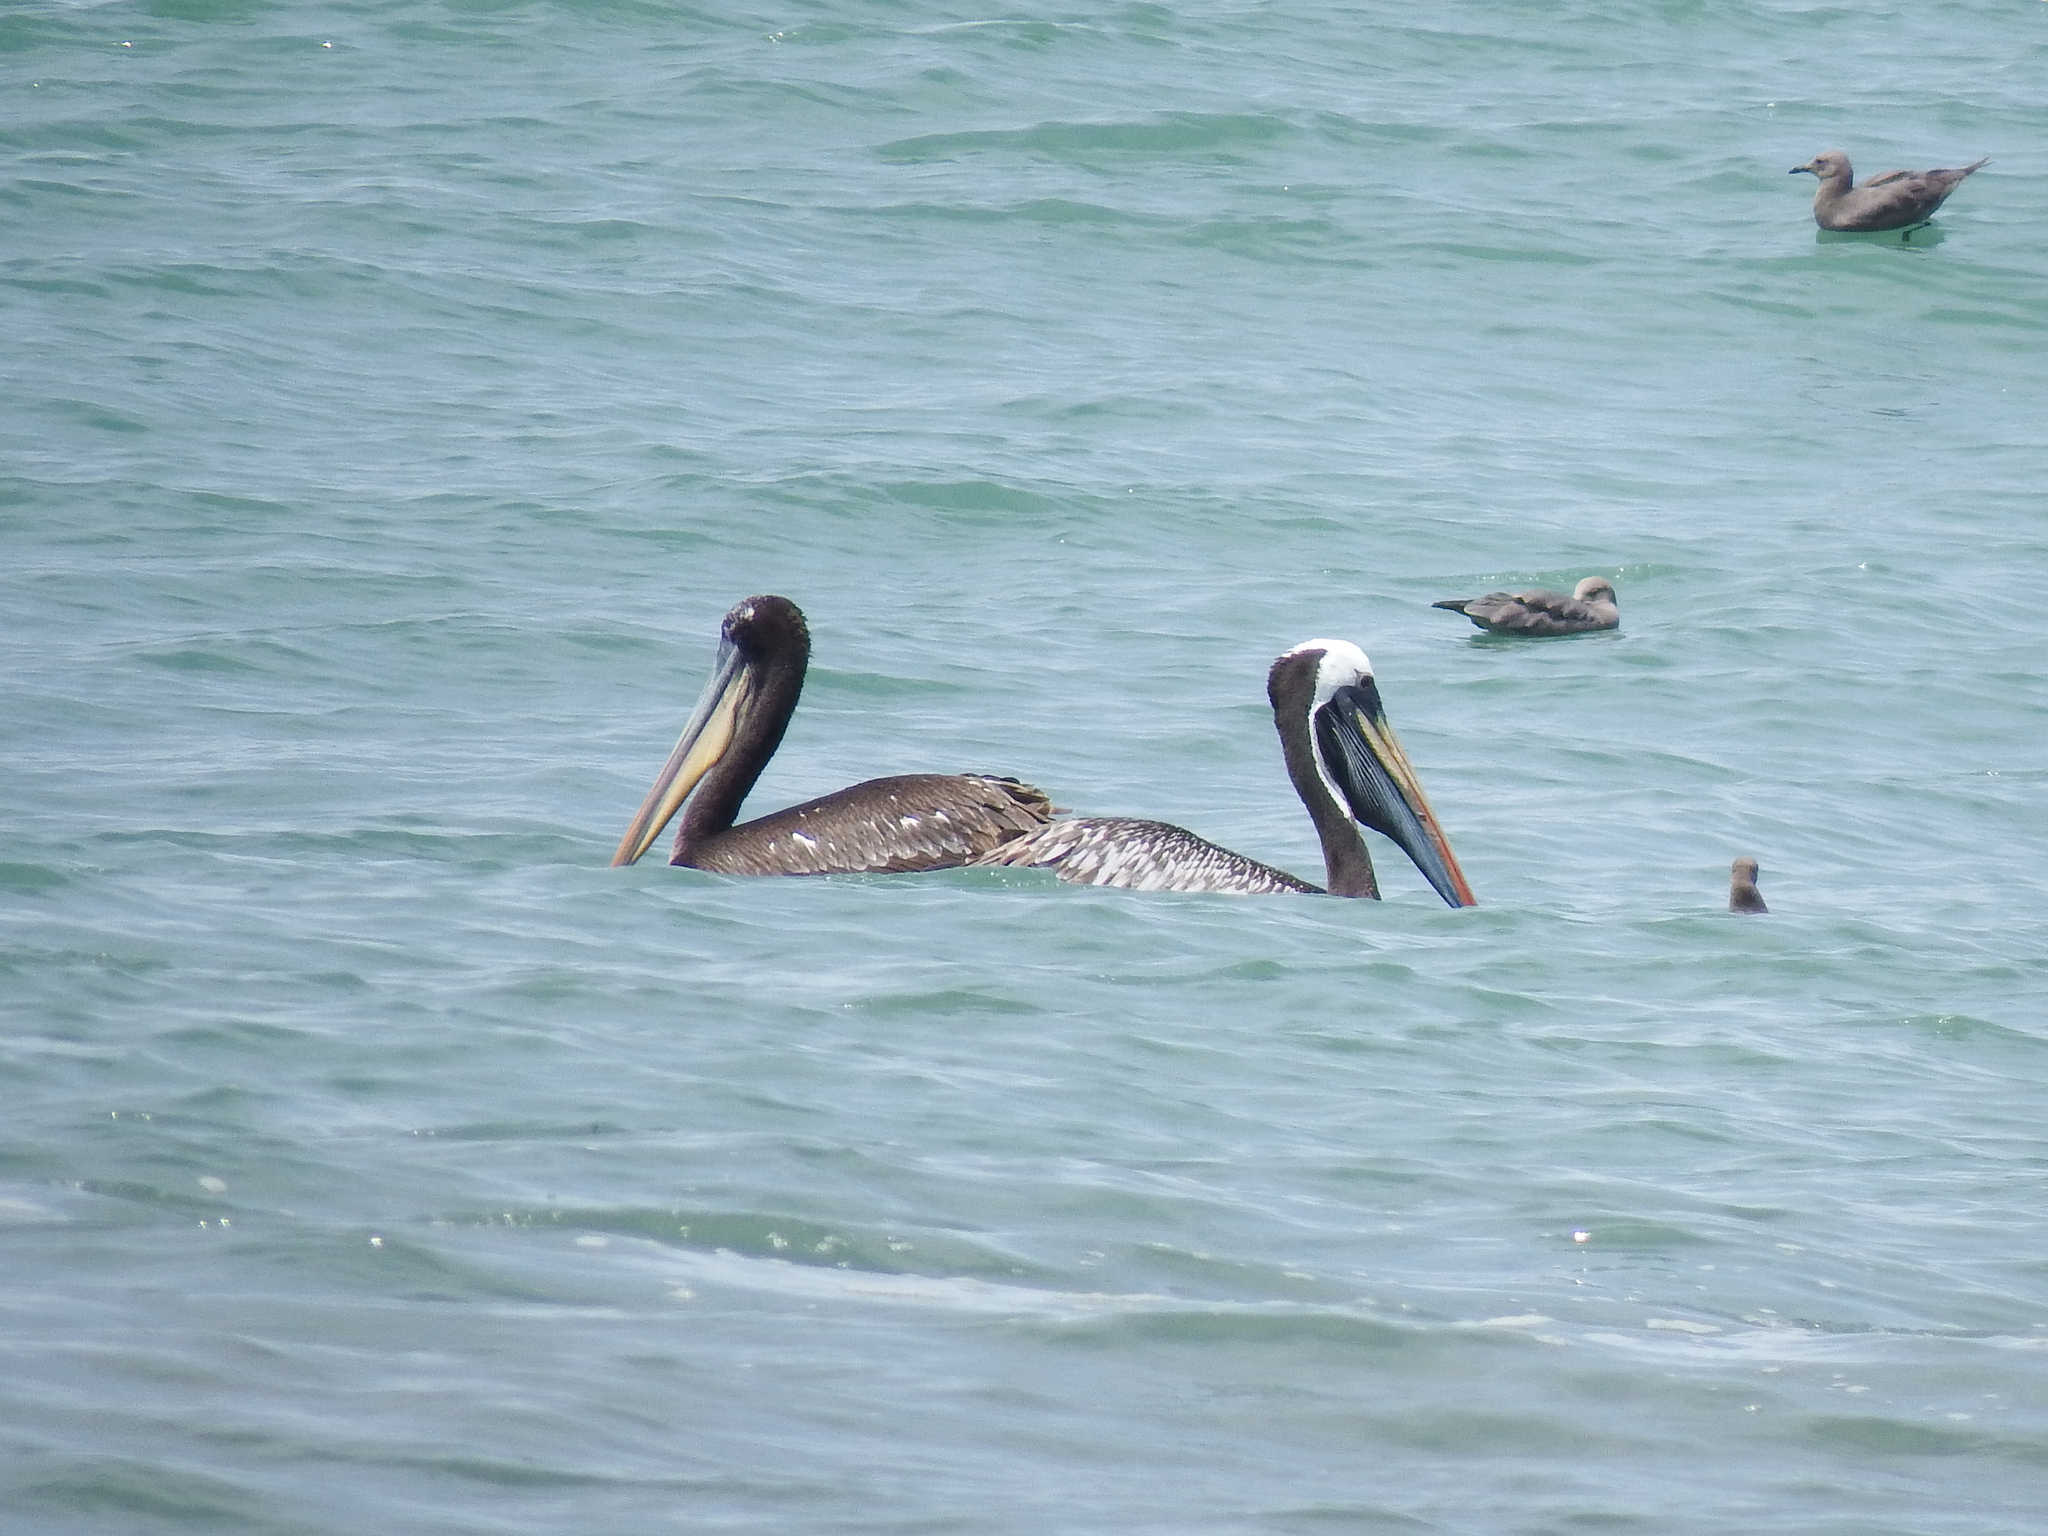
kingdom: Animalia
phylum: Chordata
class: Aves
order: Pelecaniformes
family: Pelecanidae
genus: Pelecanus
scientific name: Pelecanus thagus
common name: Peruvian pelican
